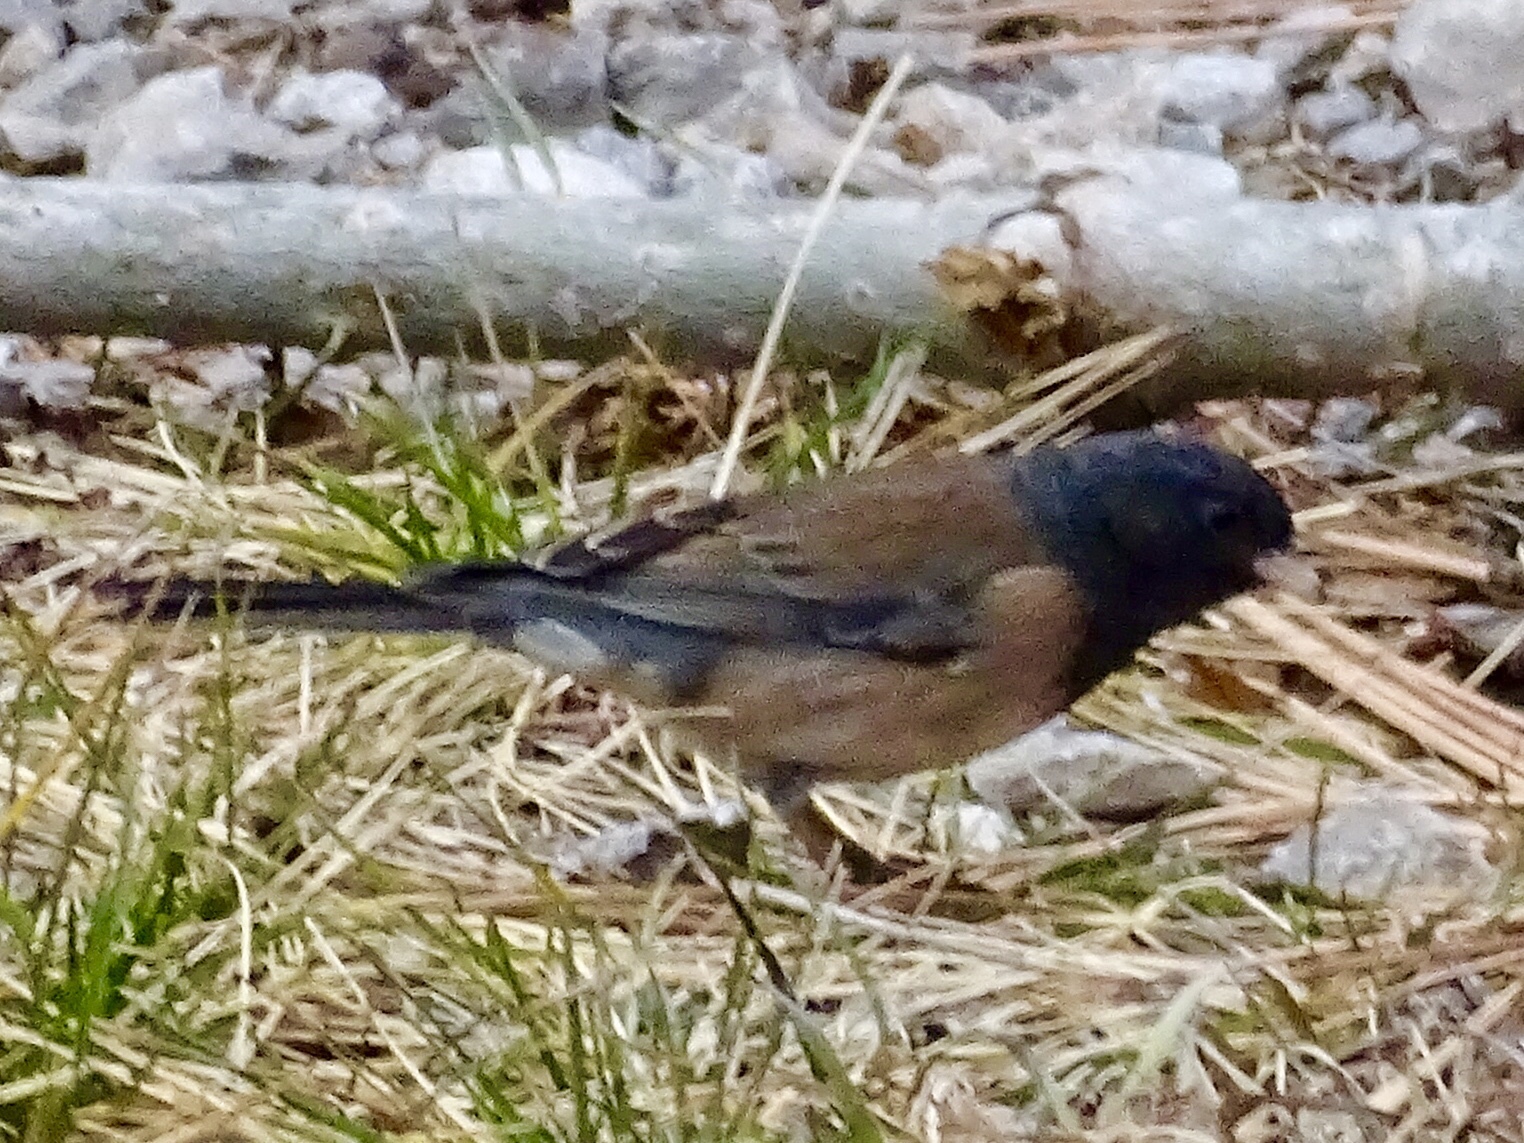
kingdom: Animalia
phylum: Chordata
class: Aves
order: Passeriformes
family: Passerellidae
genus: Junco
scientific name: Junco hyemalis
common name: Dark-eyed junco
